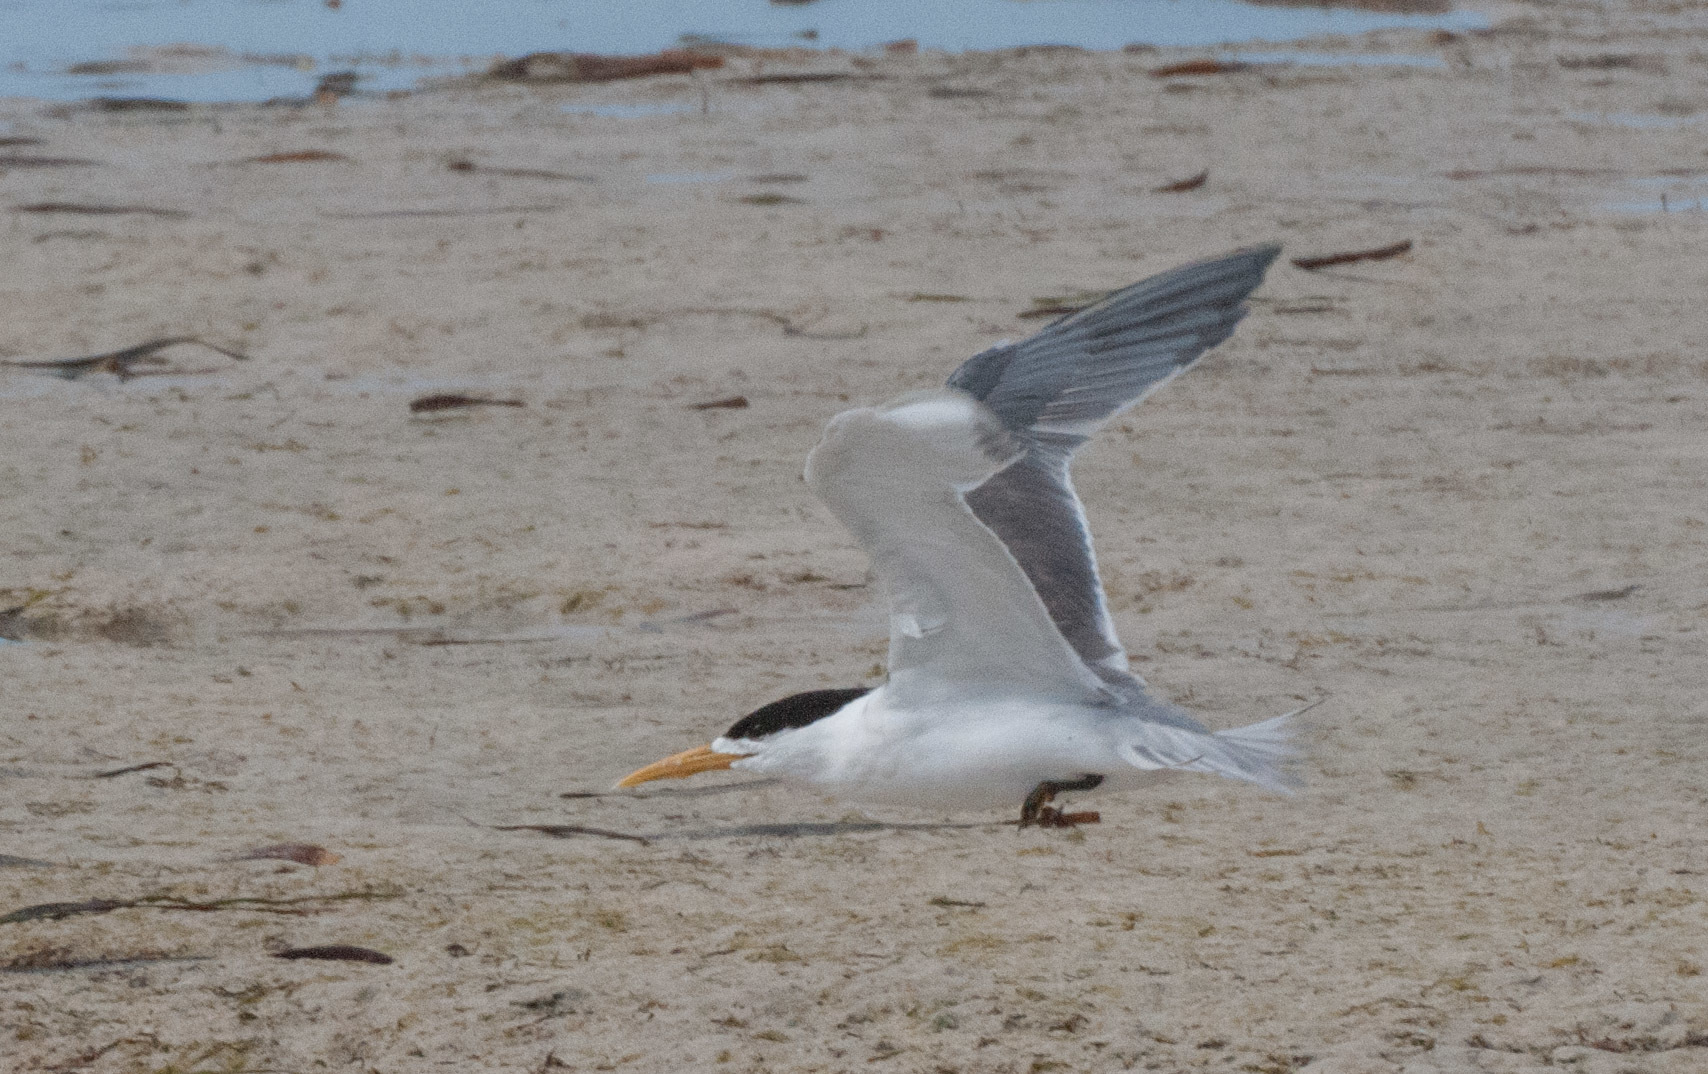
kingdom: Animalia
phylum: Chordata
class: Aves
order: Charadriiformes
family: Laridae
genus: Thalasseus
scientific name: Thalasseus bergii
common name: Greater crested tern
